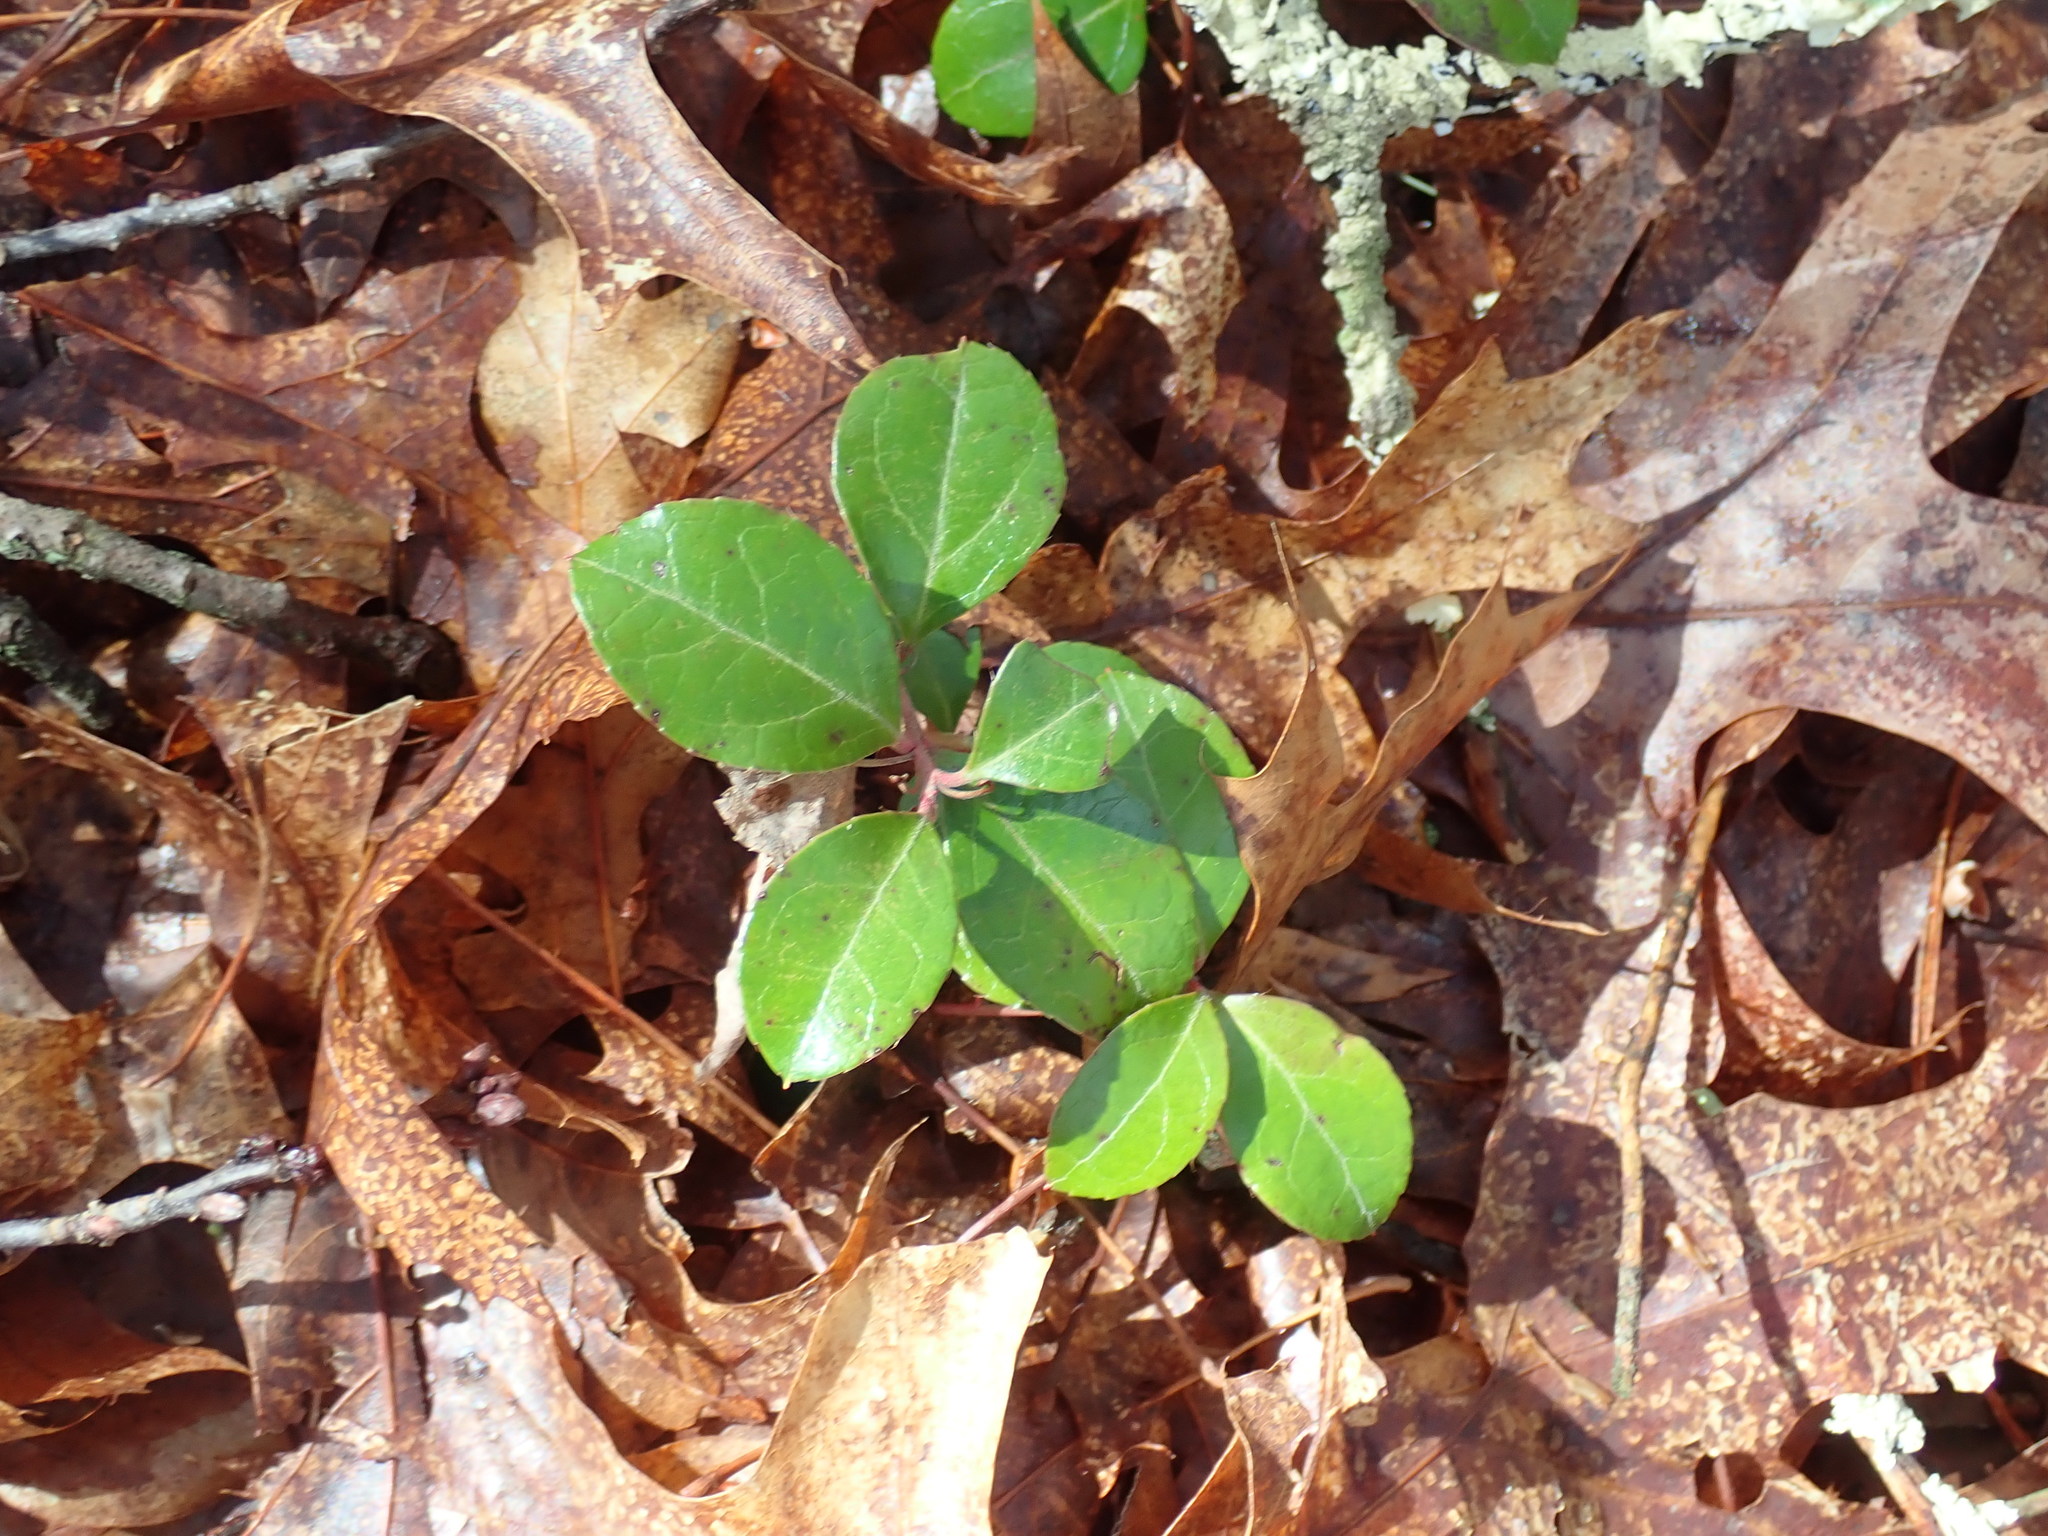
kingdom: Plantae
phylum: Tracheophyta
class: Magnoliopsida
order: Ericales
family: Ericaceae
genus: Gaultheria
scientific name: Gaultheria procumbens
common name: Checkerberry
